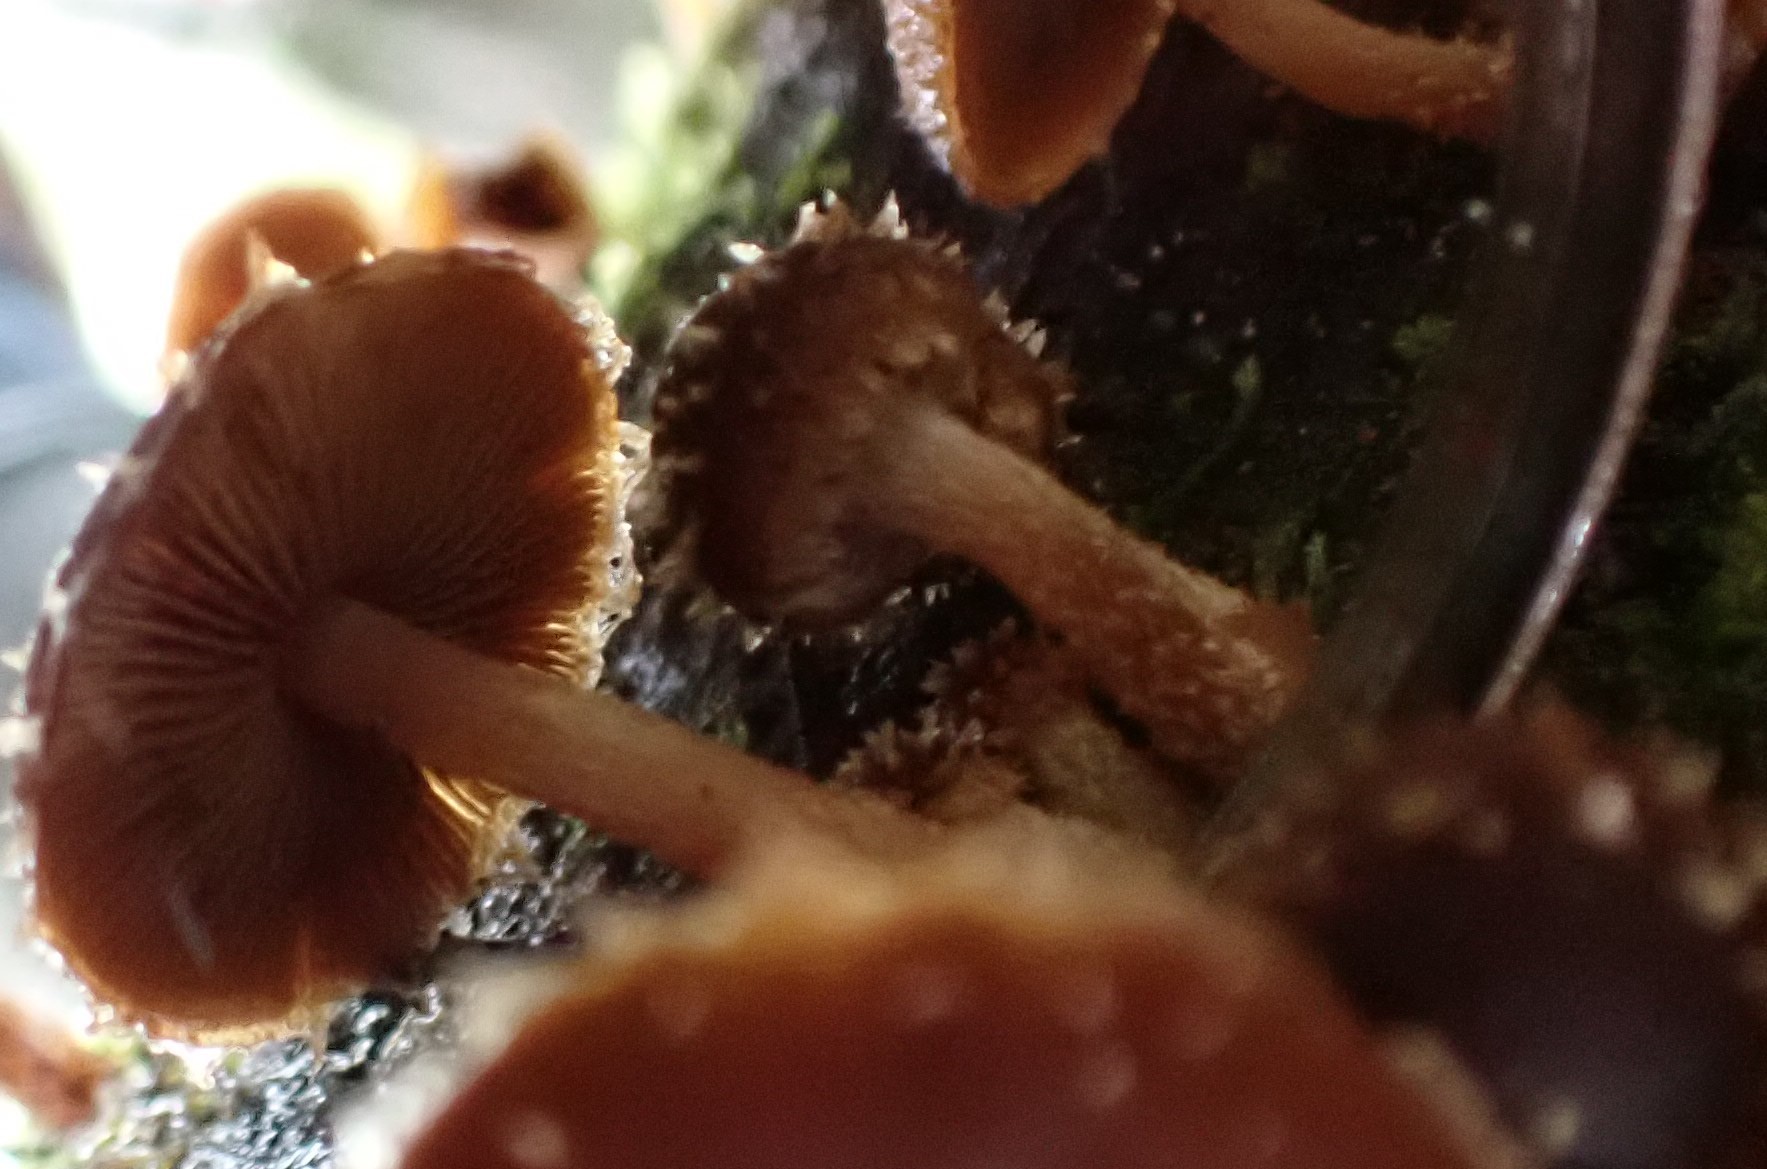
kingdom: Fungi
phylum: Basidiomycota
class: Agaricomycetes
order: Agaricales
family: Psathyrellaceae
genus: Psathyrella
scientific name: Psathyrella echinata
